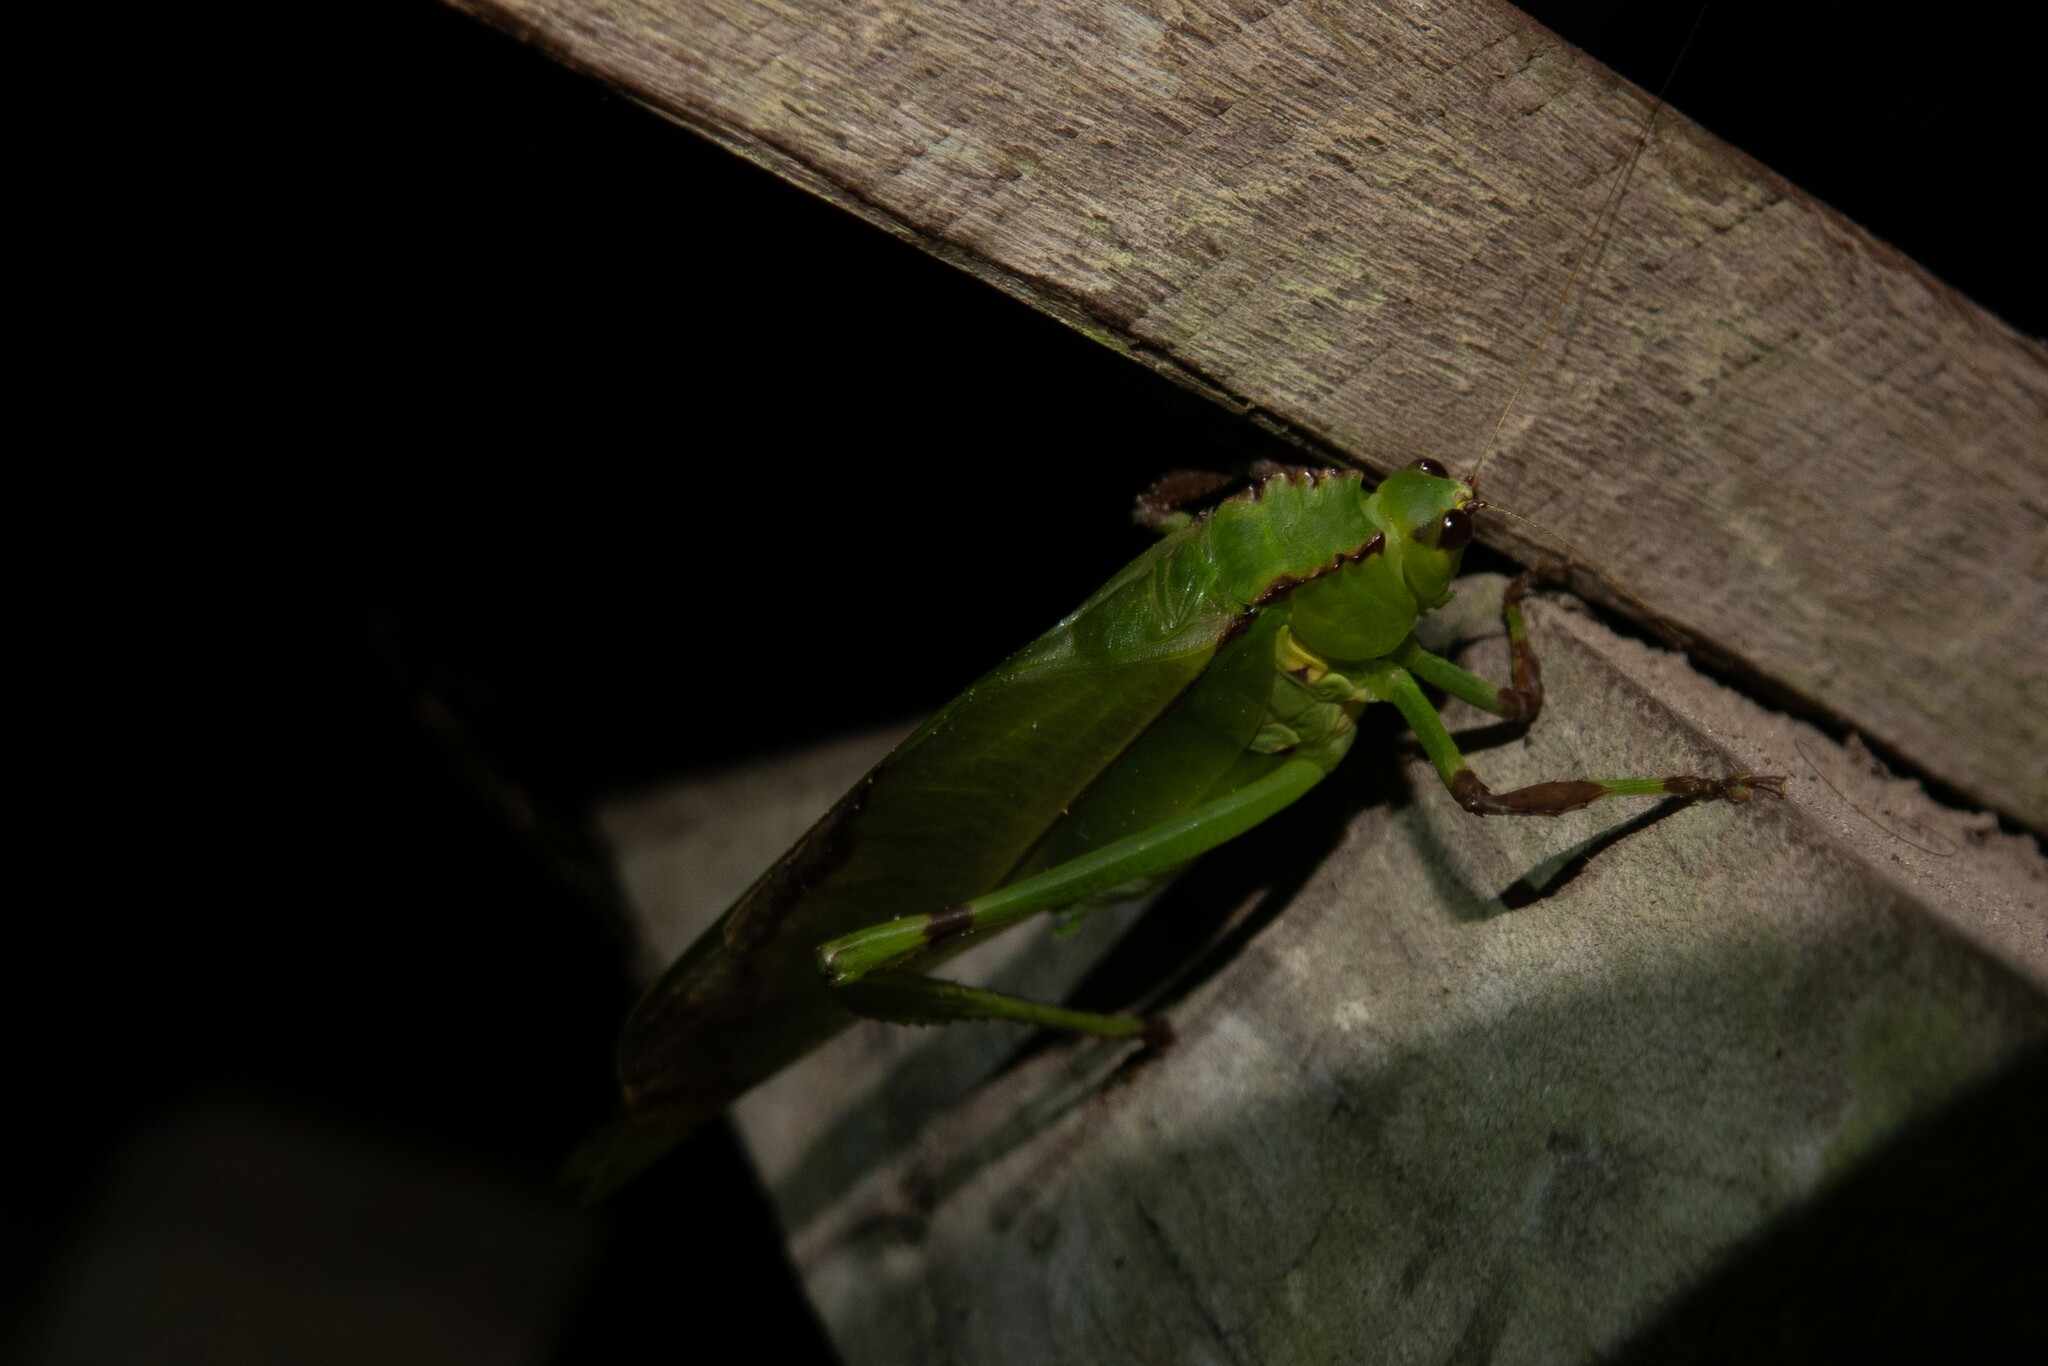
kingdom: Animalia
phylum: Arthropoda
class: Insecta
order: Orthoptera
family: Tettigoniidae
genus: Cnemidophyllum
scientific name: Cnemidophyllum lineatum
